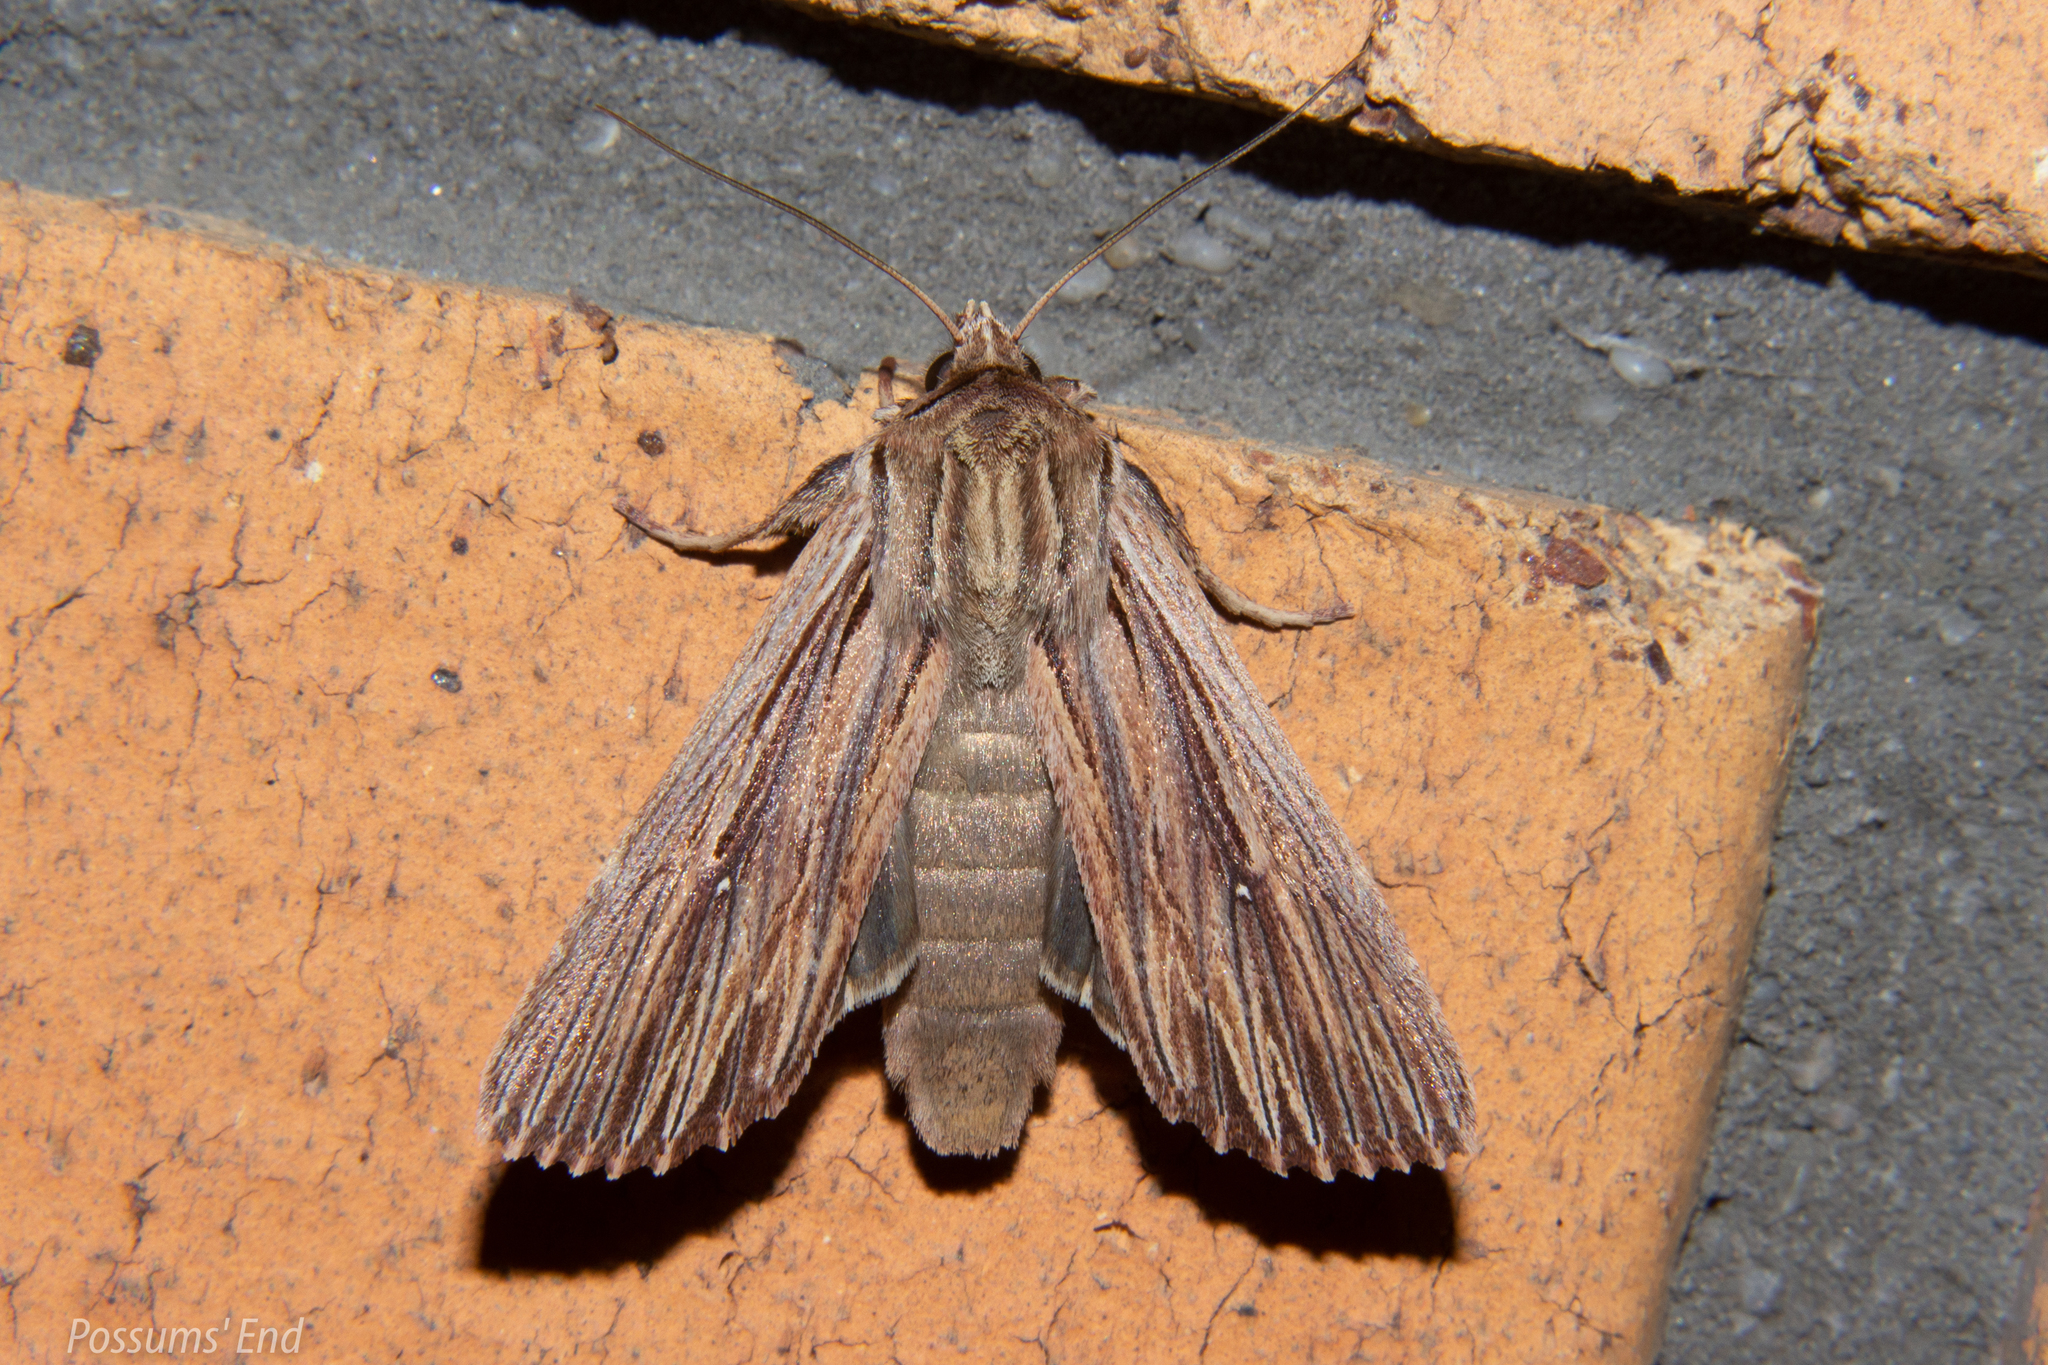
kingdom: Animalia
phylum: Arthropoda
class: Insecta
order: Lepidoptera
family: Noctuidae
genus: Ichneutica
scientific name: Ichneutica
